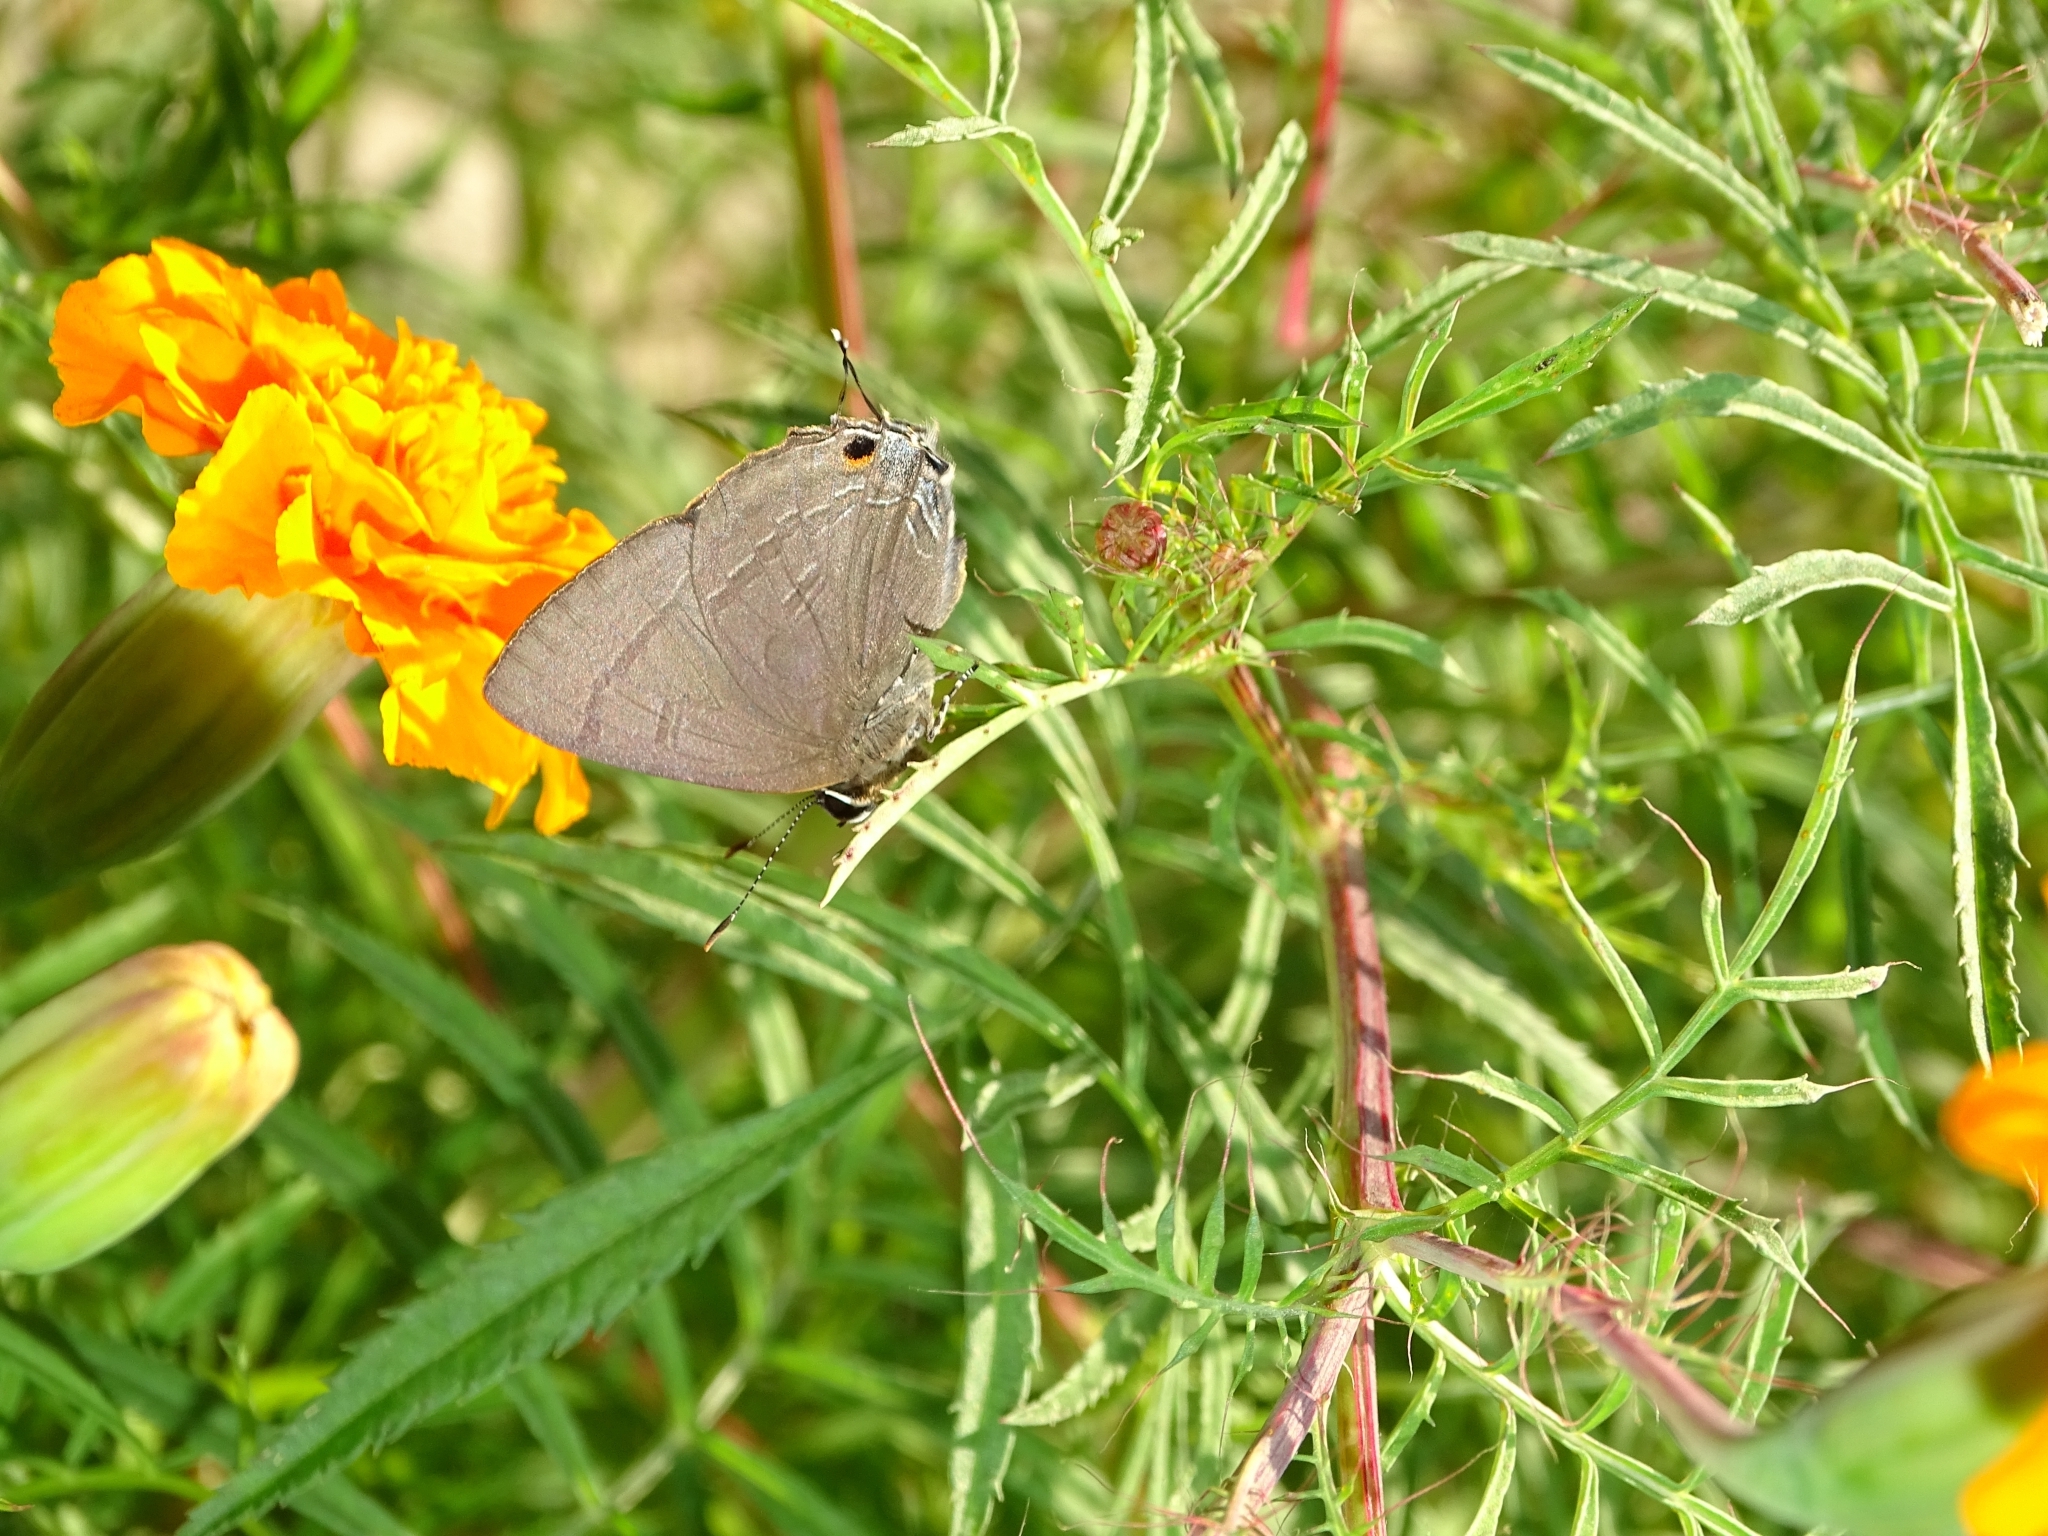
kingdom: Animalia
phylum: Arthropoda
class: Insecta
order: Lepidoptera
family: Lycaenidae
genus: Rapala
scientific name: Rapala manea
